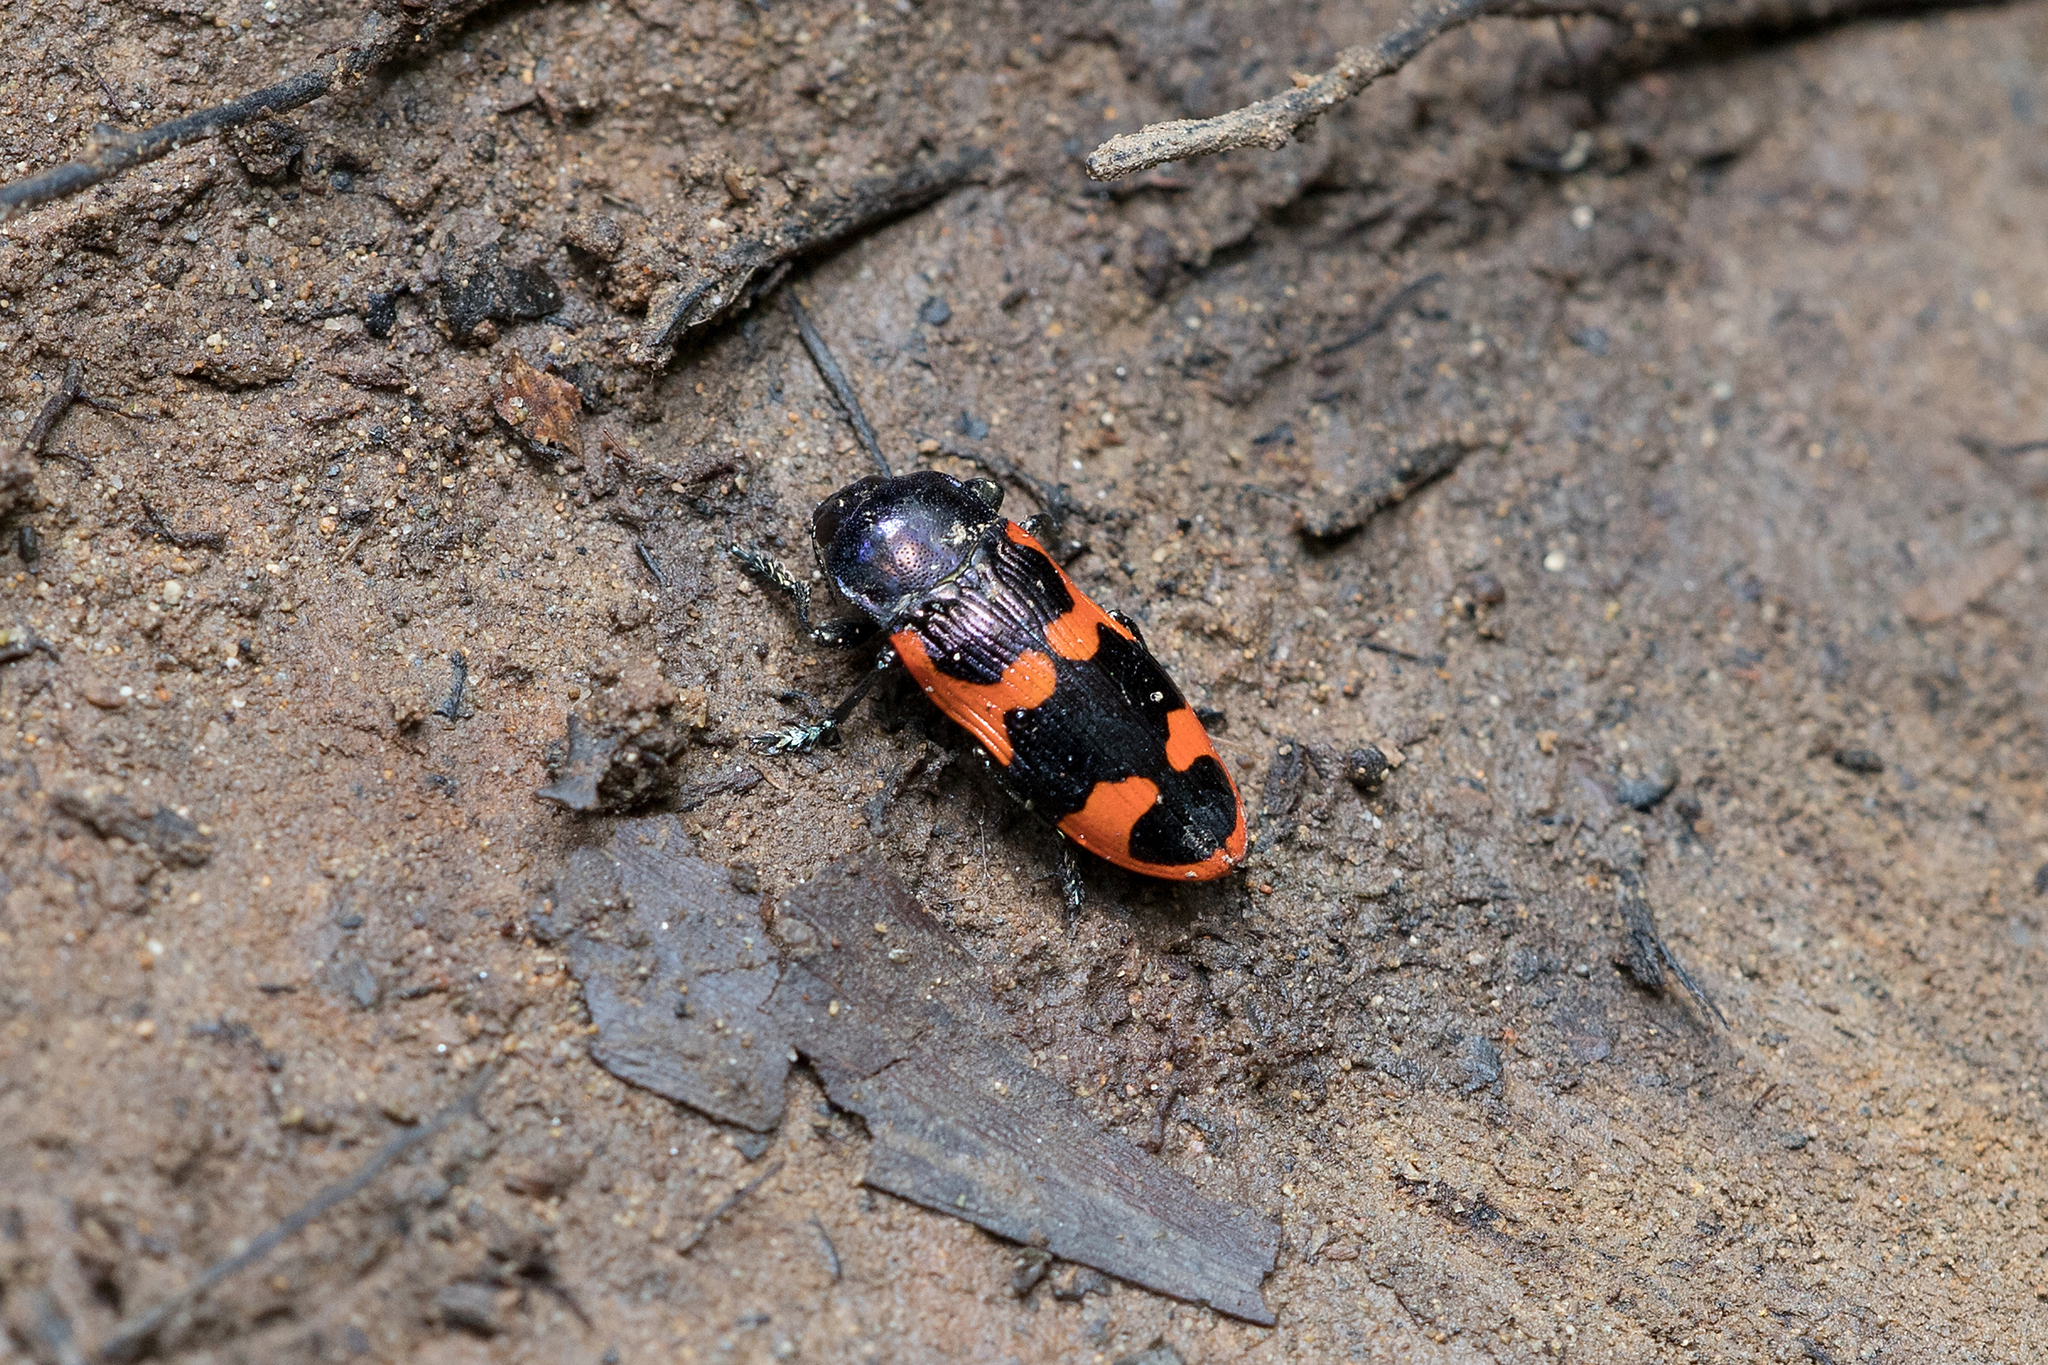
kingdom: Animalia
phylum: Arthropoda
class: Insecta
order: Coleoptera
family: Buprestidae
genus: Castiarina
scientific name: Castiarina bremei
